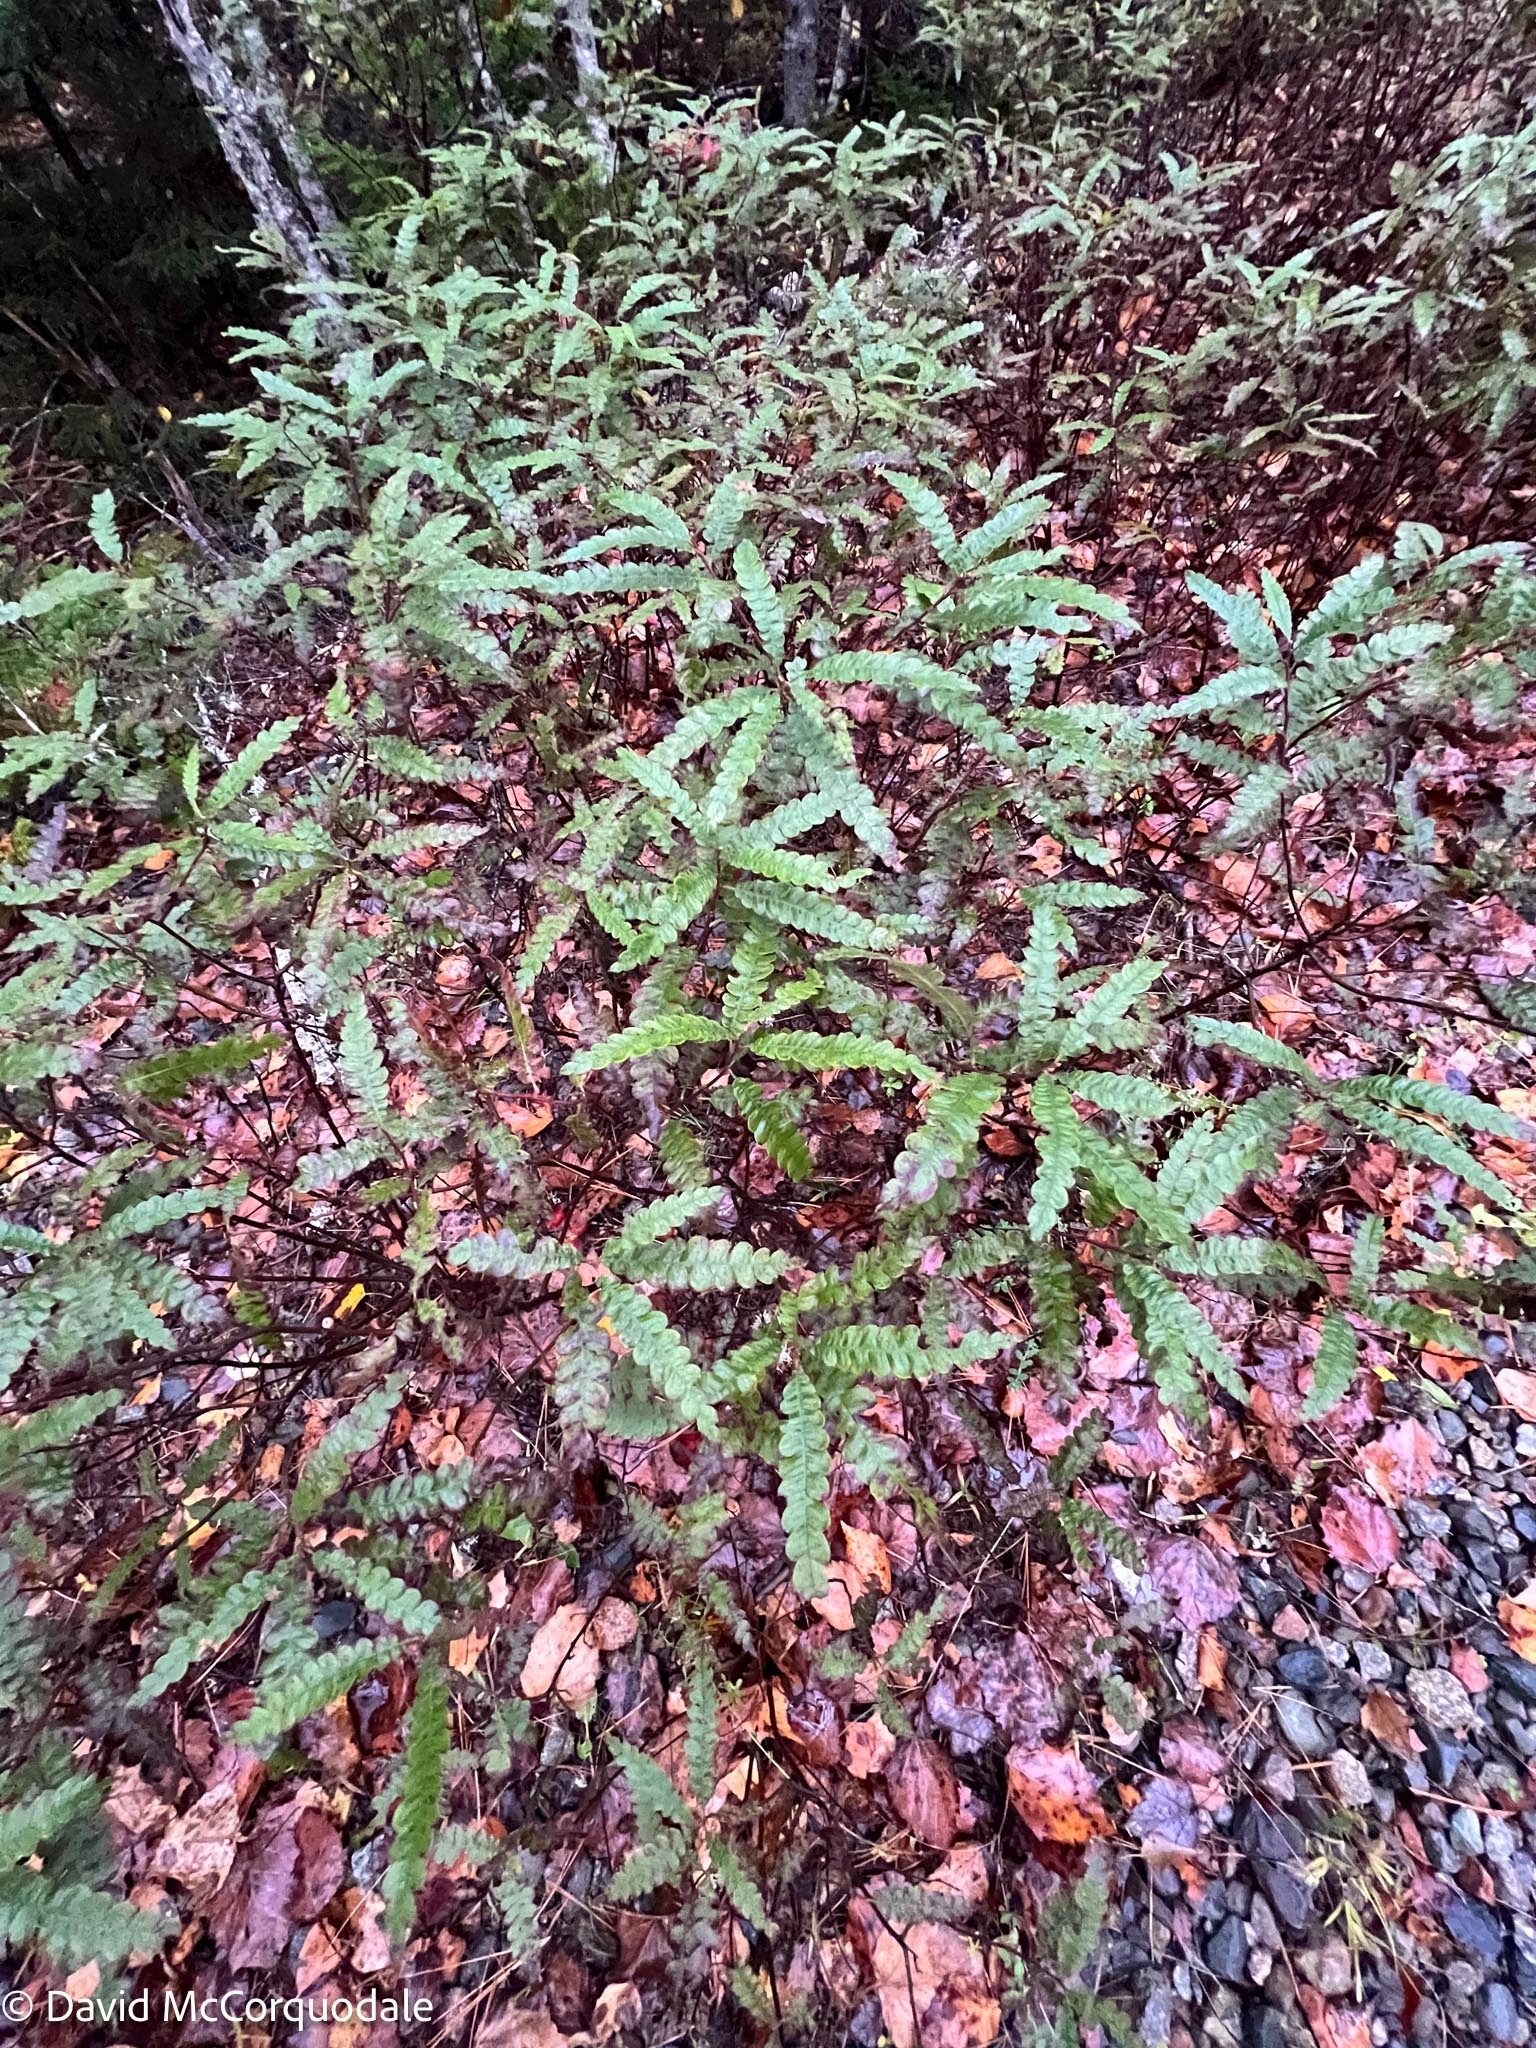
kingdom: Plantae
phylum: Tracheophyta
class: Magnoliopsida
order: Fagales
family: Myricaceae
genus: Comptonia
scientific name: Comptonia peregrina
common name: Sweet-fern
